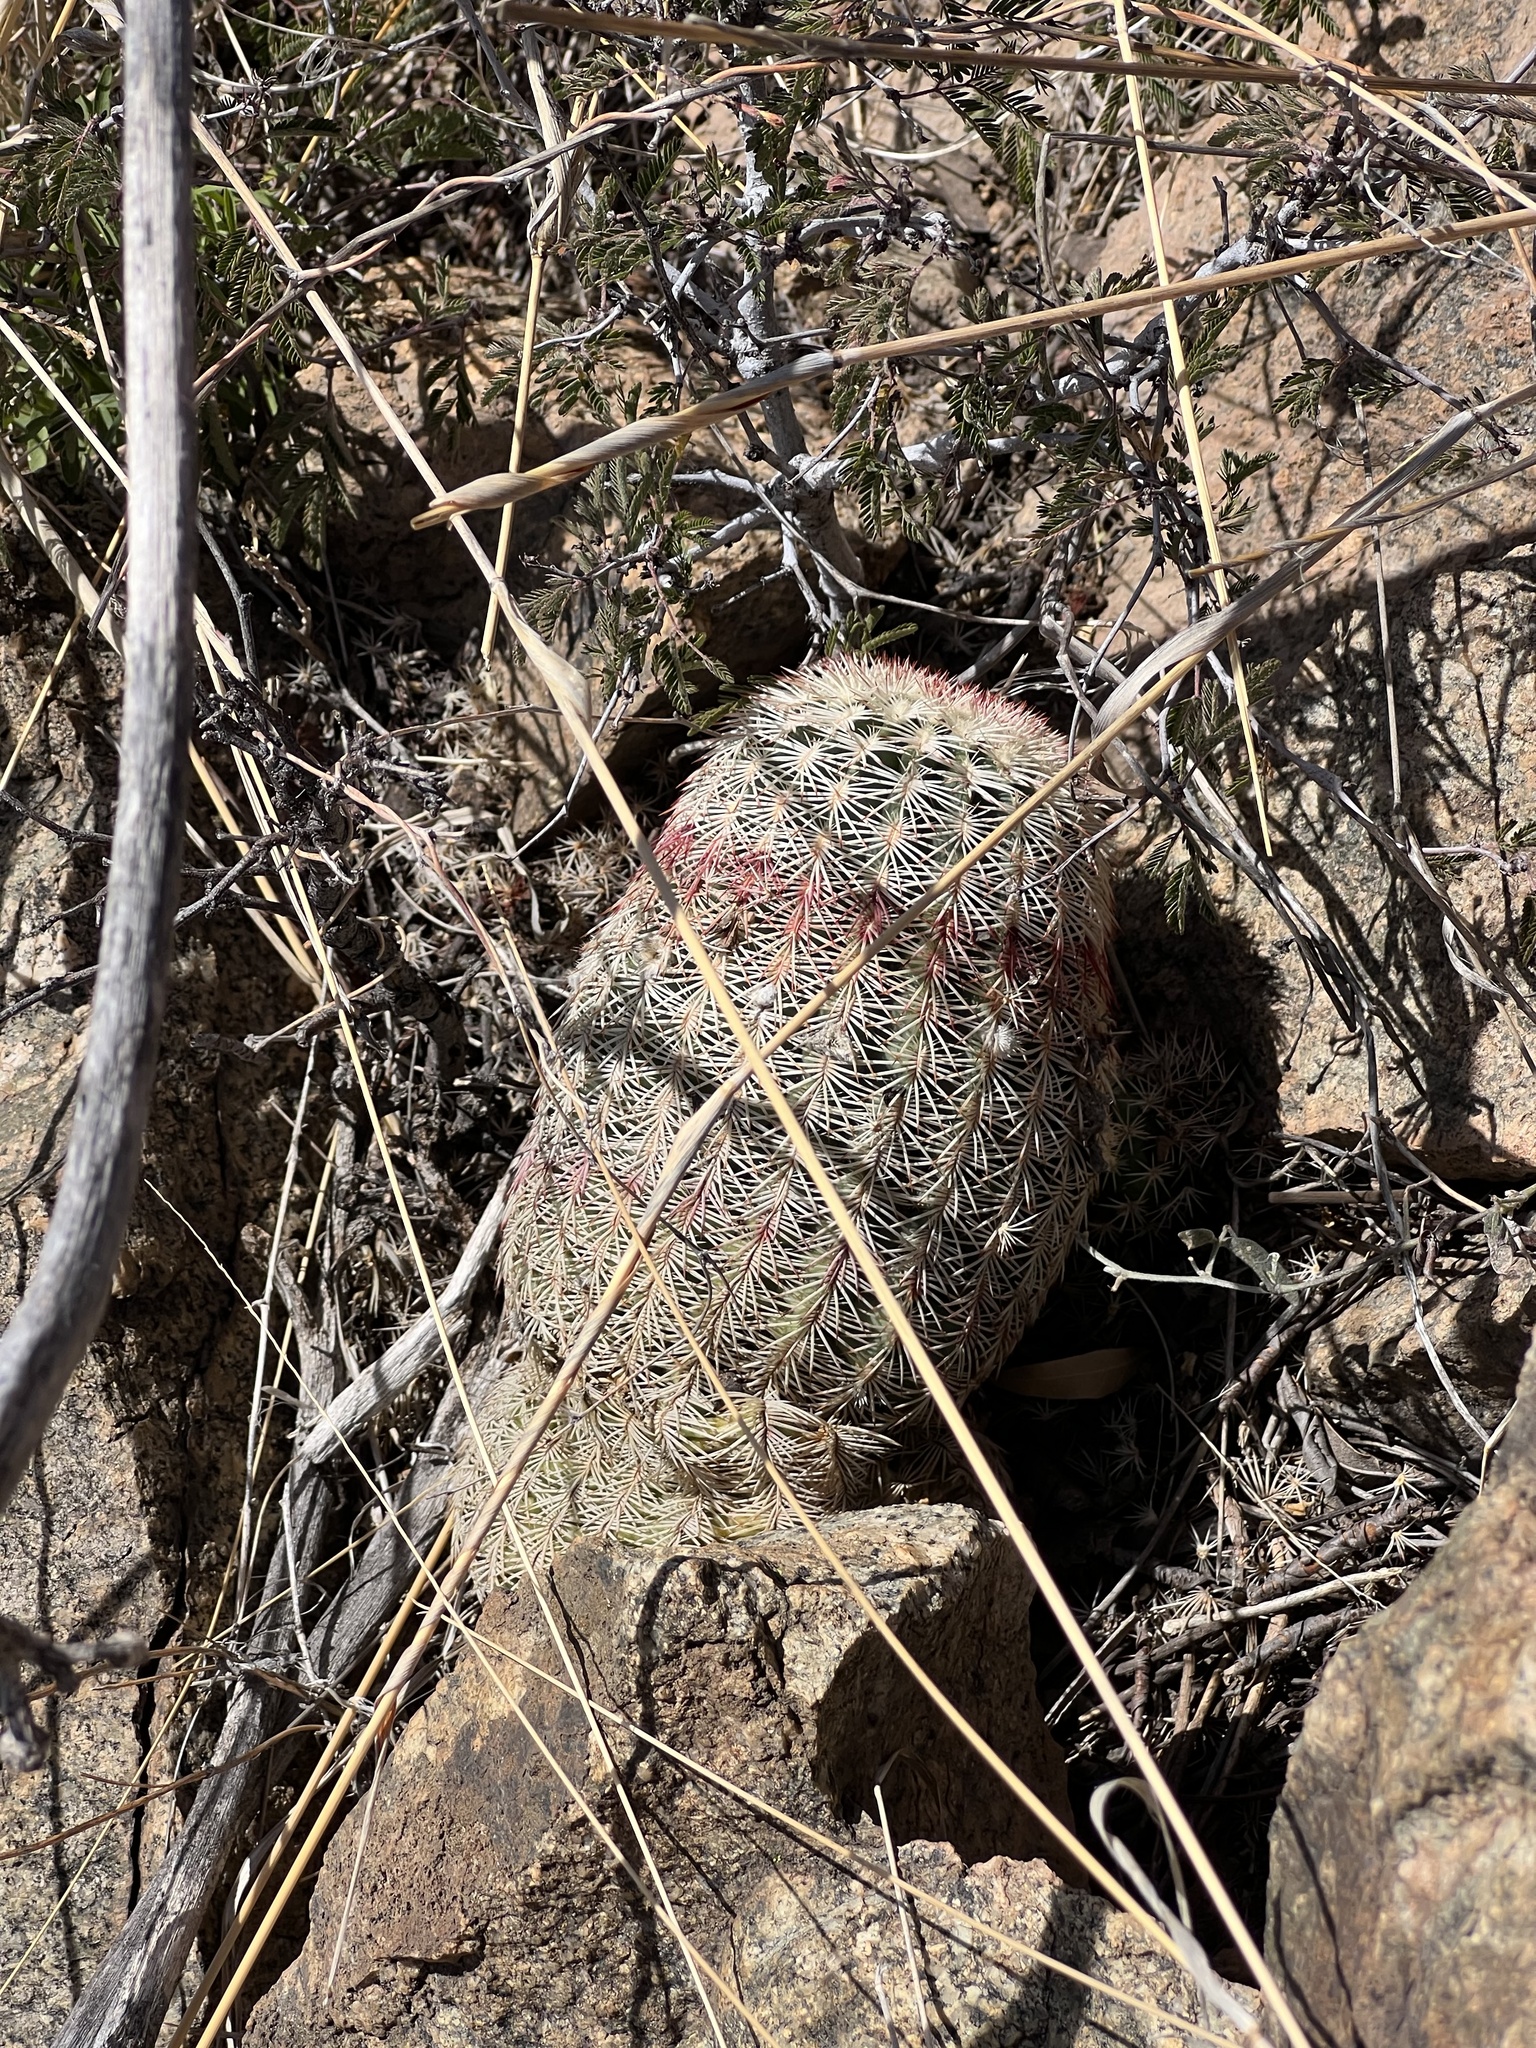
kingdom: Plantae
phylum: Tracheophyta
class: Magnoliopsida
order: Caryophyllales
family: Cactaceae
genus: Echinocereus
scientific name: Echinocereus rigidissimus
